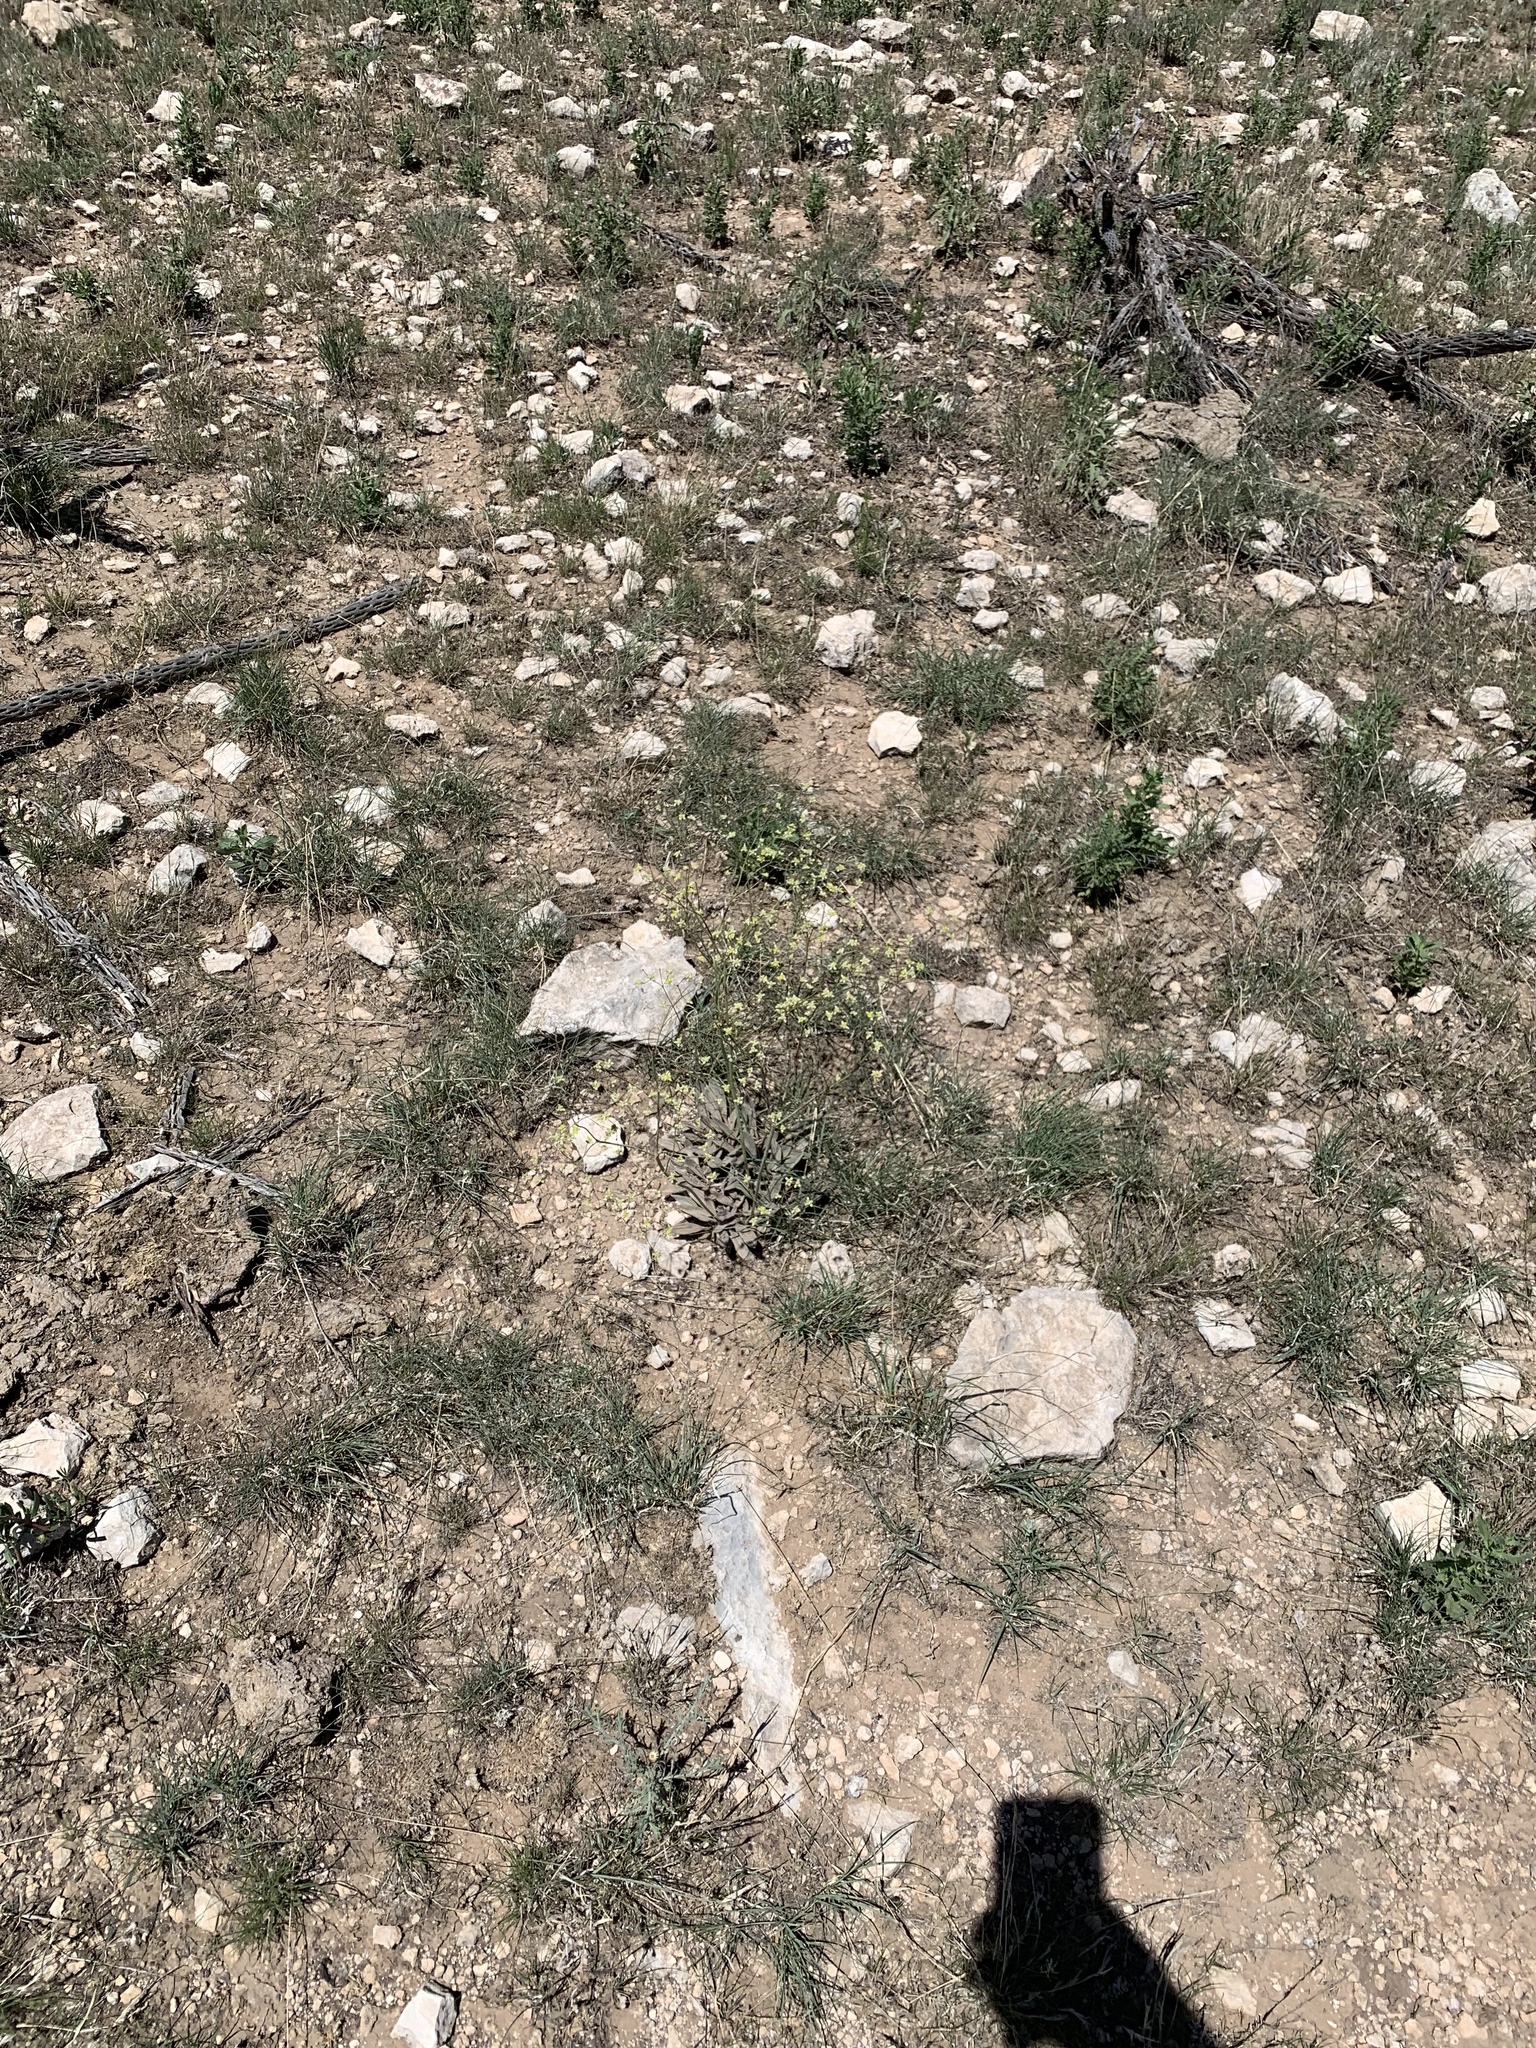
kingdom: Plantae
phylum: Tracheophyta
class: Magnoliopsida
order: Caryophyllales
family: Polygonaceae
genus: Eriogonum
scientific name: Eriogonum havardii
